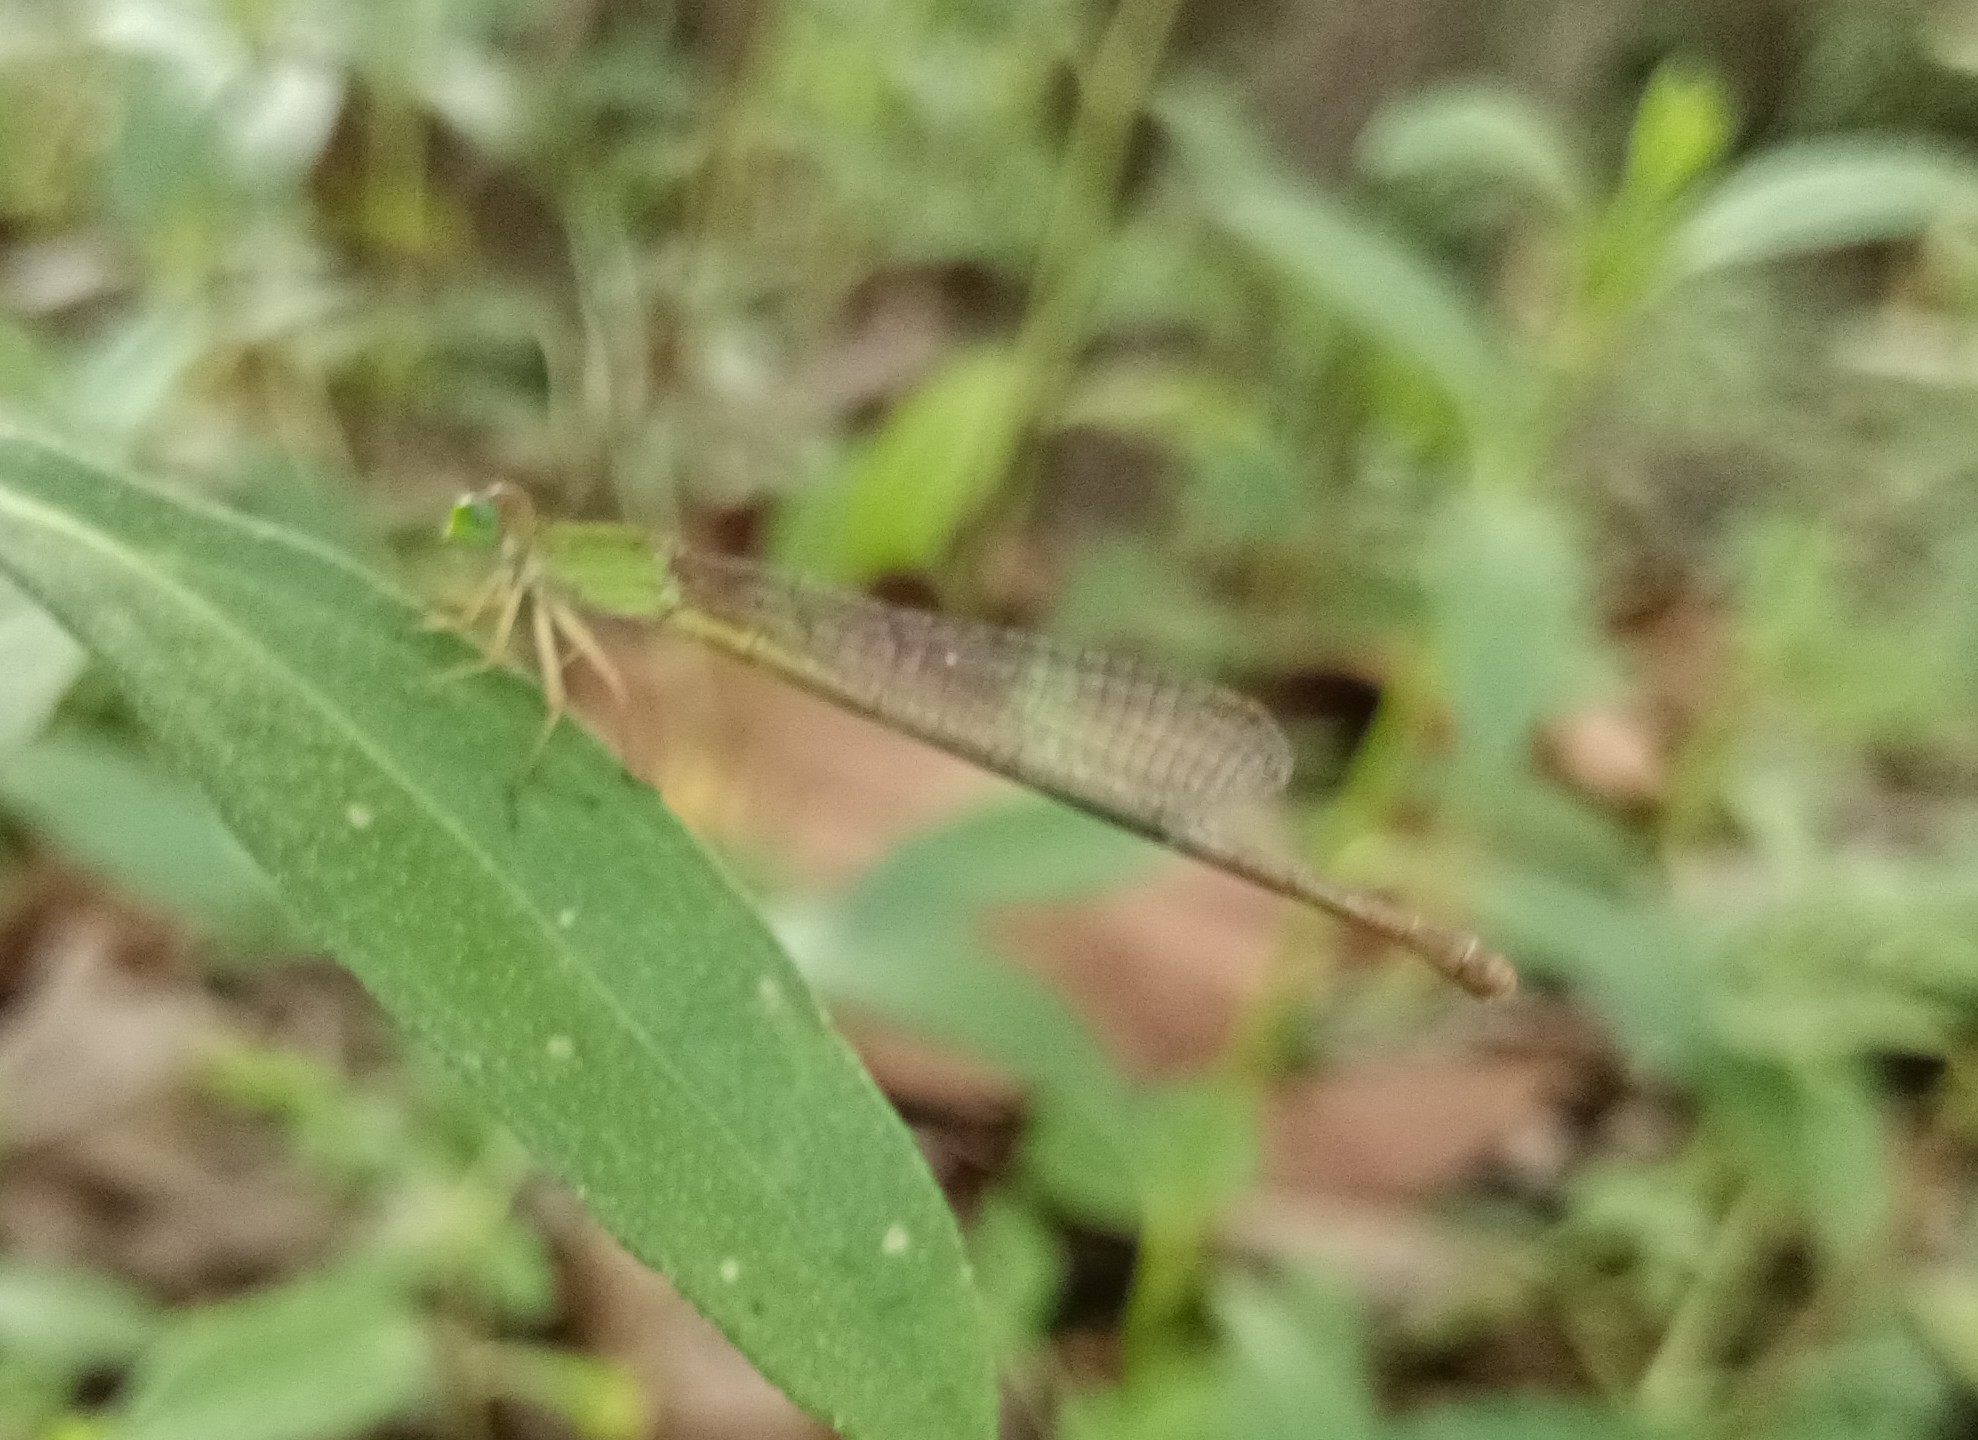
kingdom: Animalia
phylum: Arthropoda
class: Insecta
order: Odonata
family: Coenagrionidae
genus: Ceriagrion
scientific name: Ceriagrion coromandelianum
